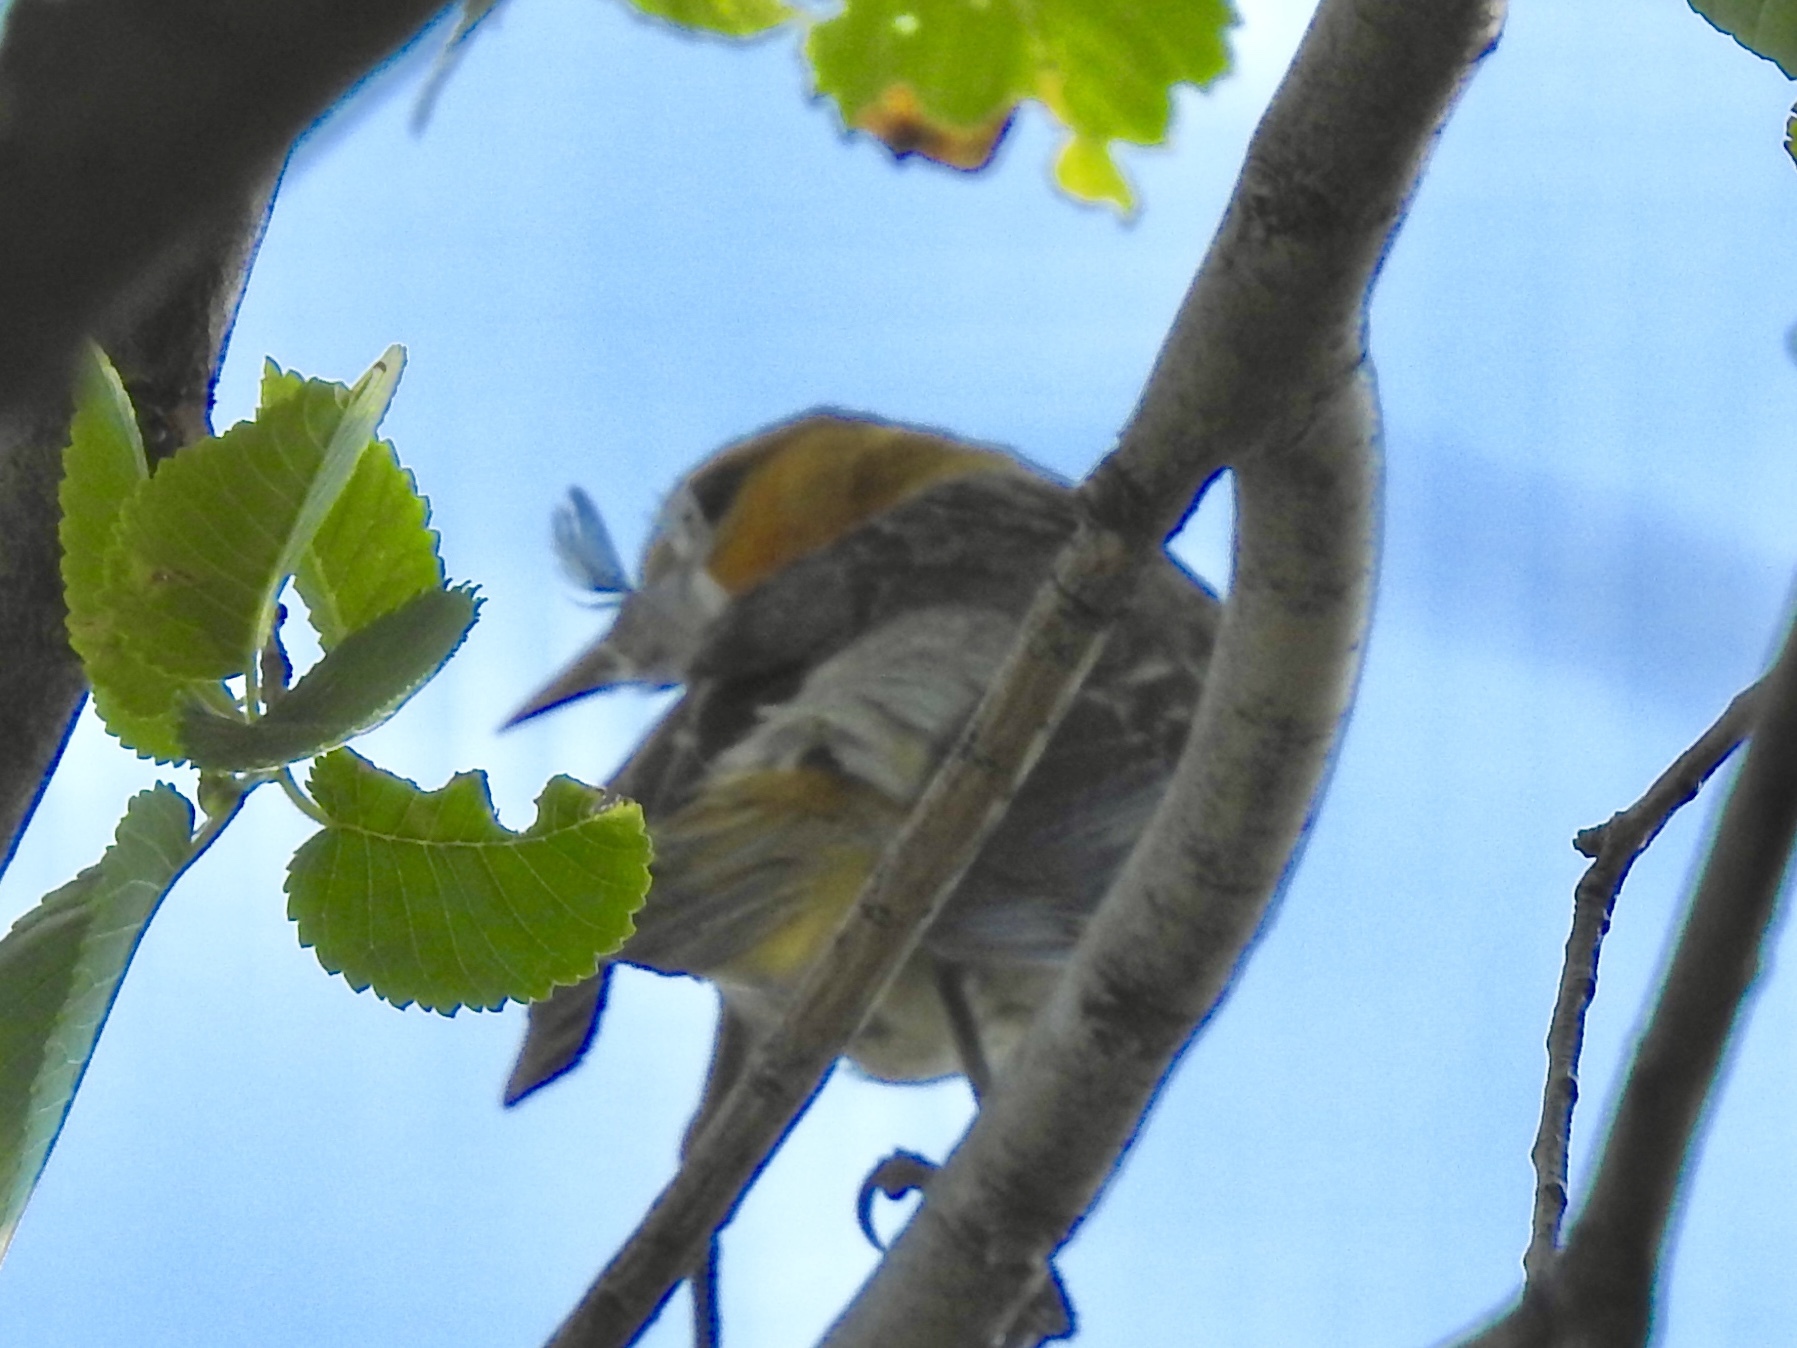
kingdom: Animalia
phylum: Chordata
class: Aves
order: Passeriformes
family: Icteridae
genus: Icterus
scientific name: Icterus bullockii
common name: Bullock's oriole
